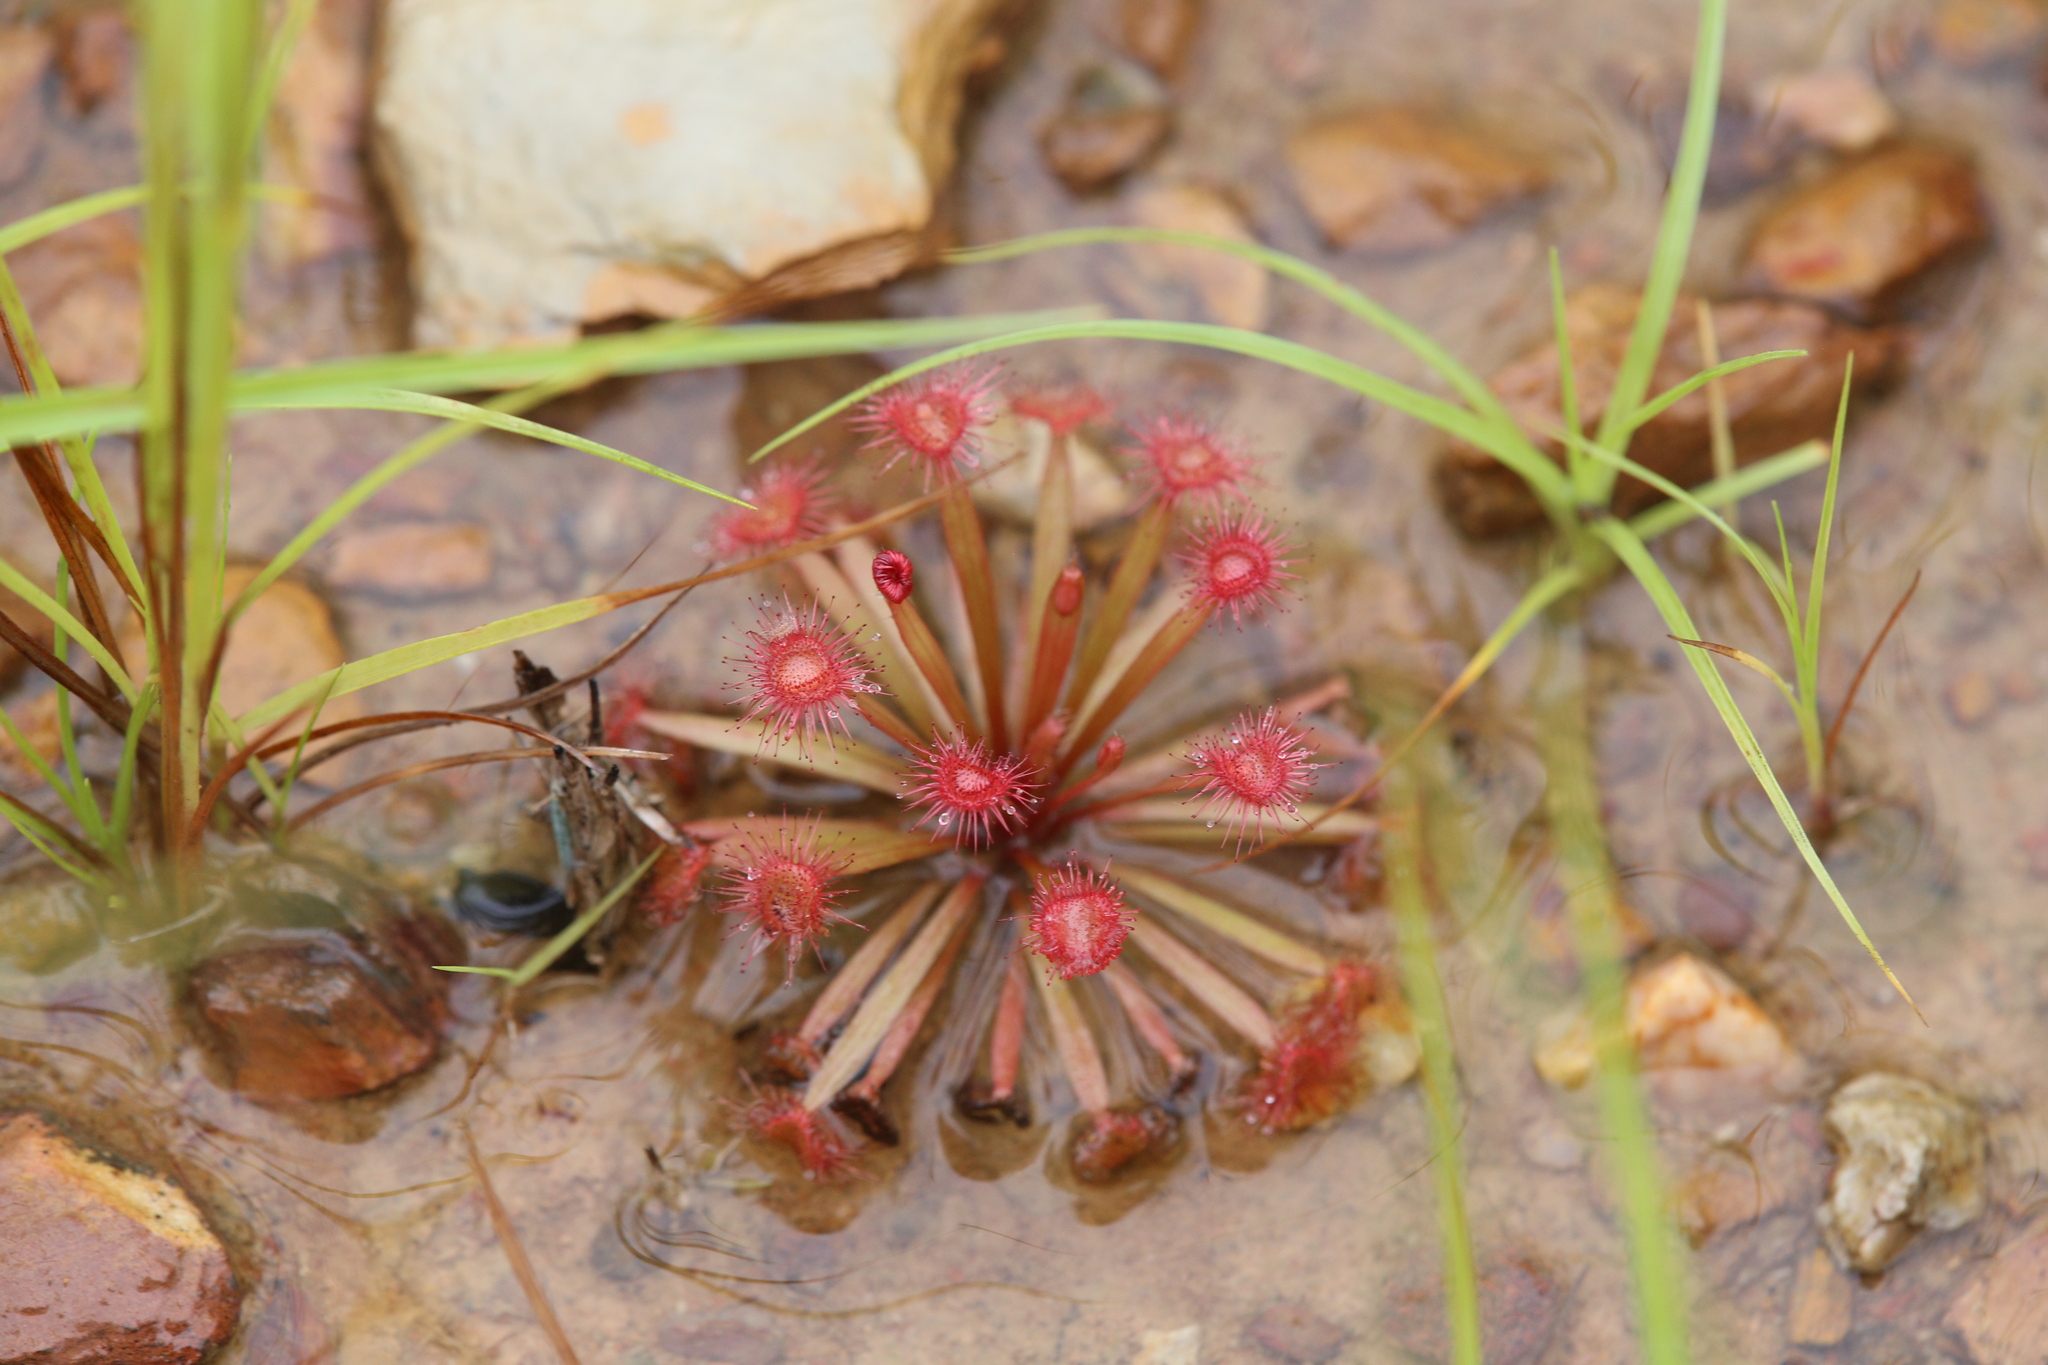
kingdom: Plantae
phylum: Tracheophyta
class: Magnoliopsida
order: Caryophyllales
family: Droseraceae
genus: Drosera
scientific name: Drosera dilatatopetiolaris
